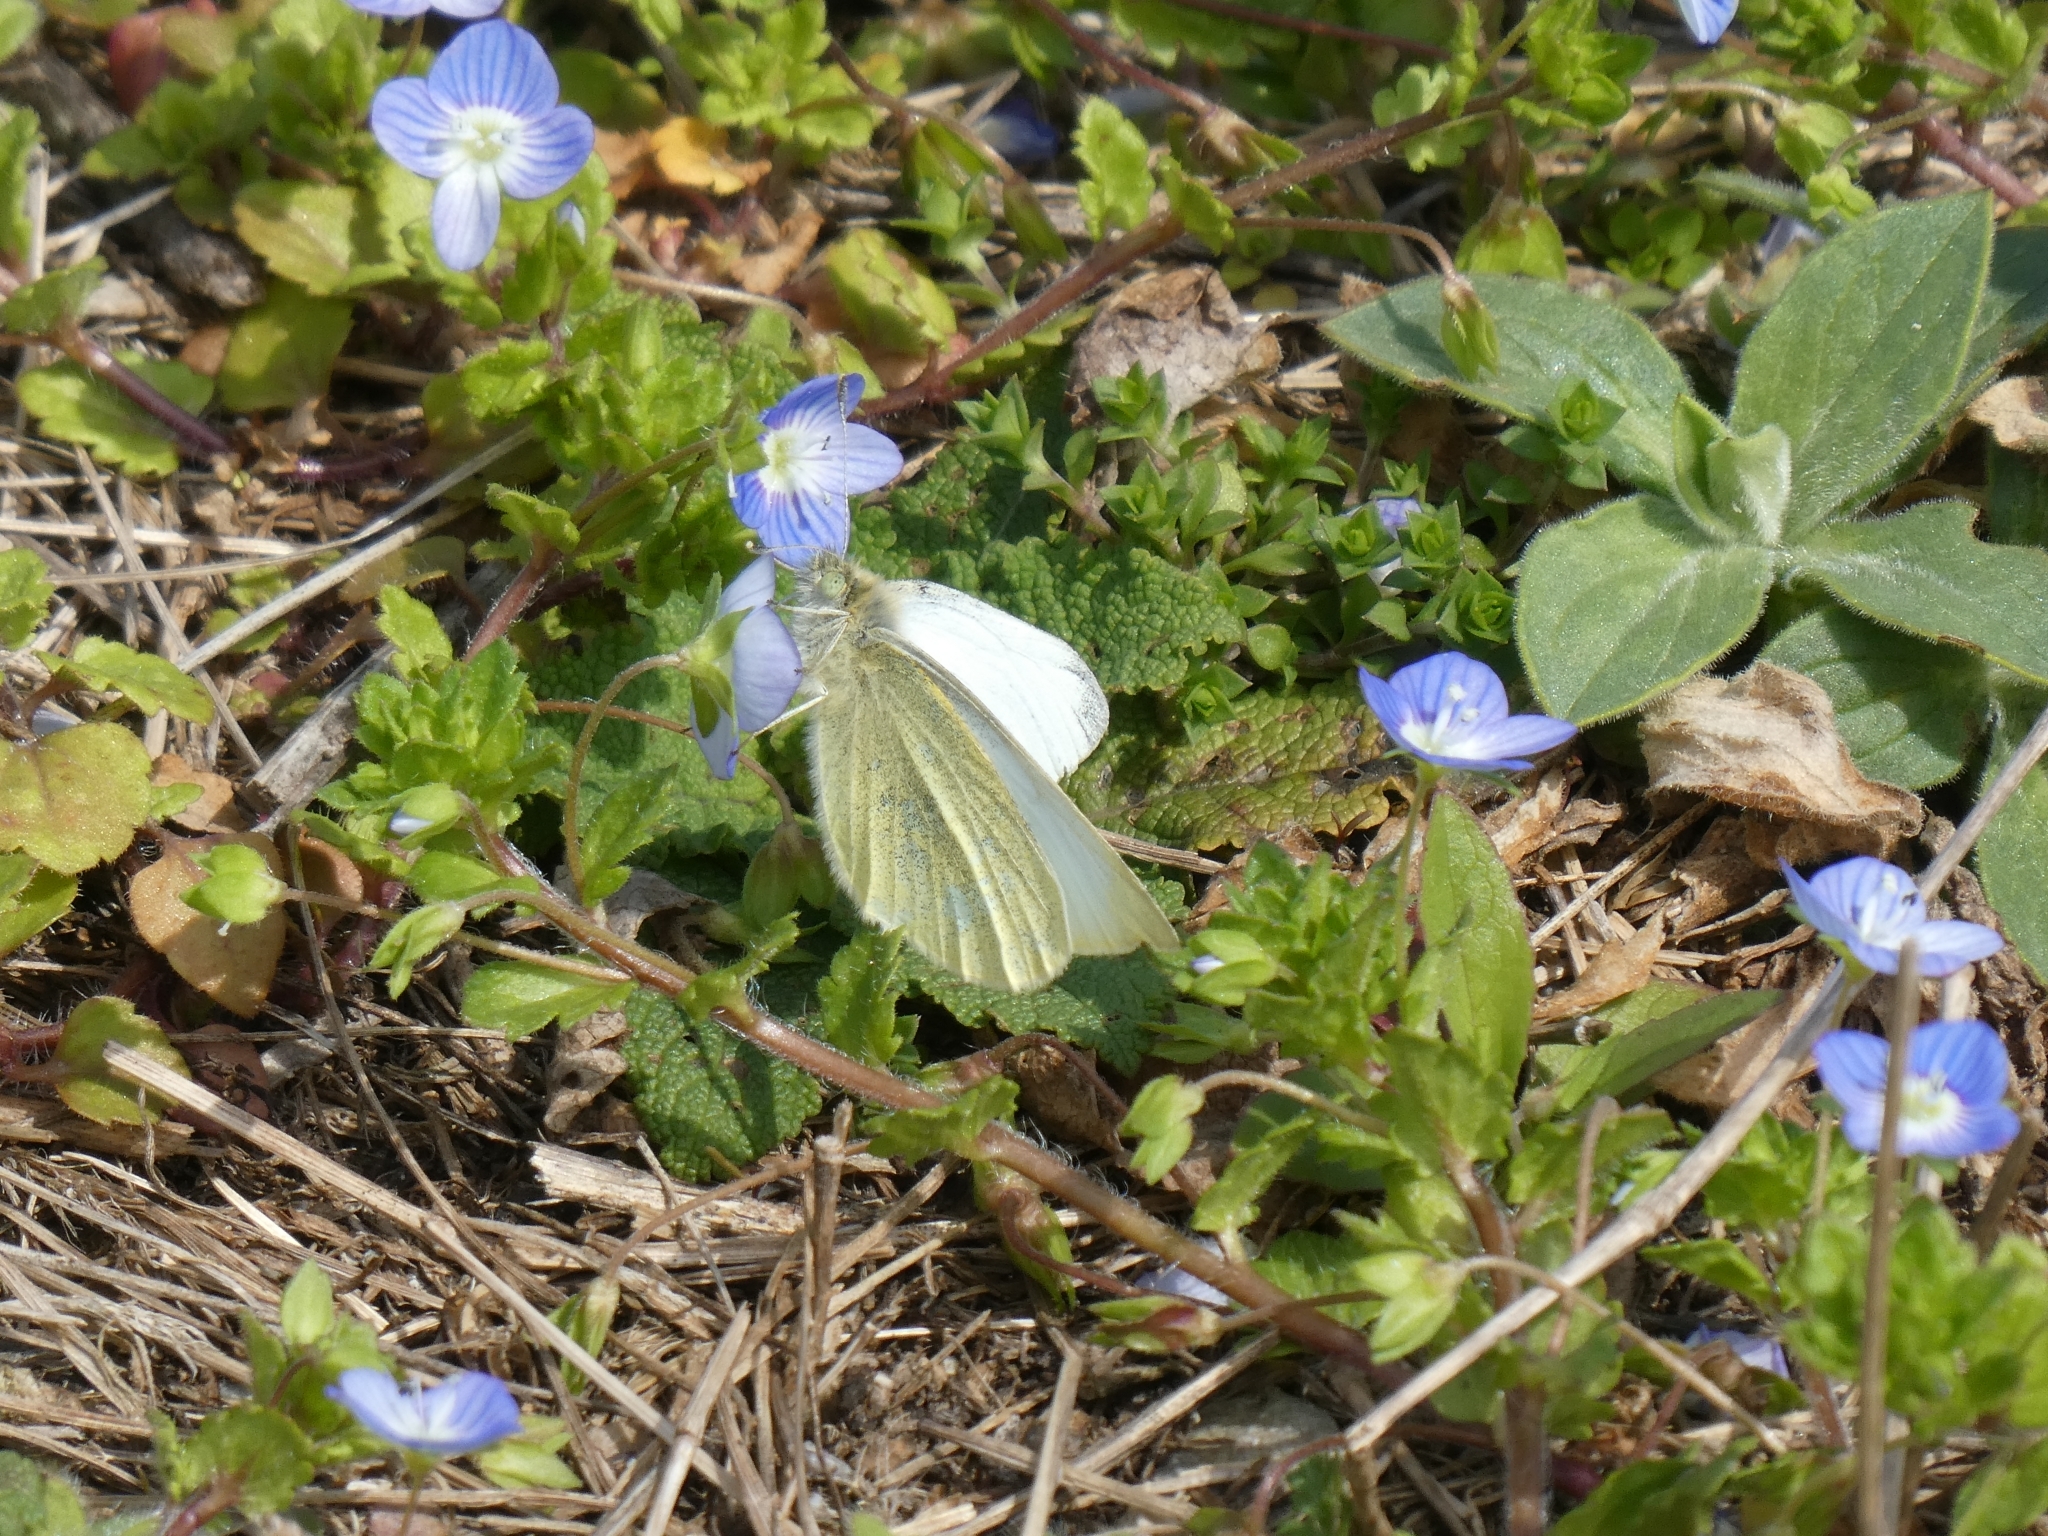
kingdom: Animalia
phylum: Arthropoda
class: Insecta
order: Lepidoptera
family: Pieridae
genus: Pieris
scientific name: Pieris rapae
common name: Small white
